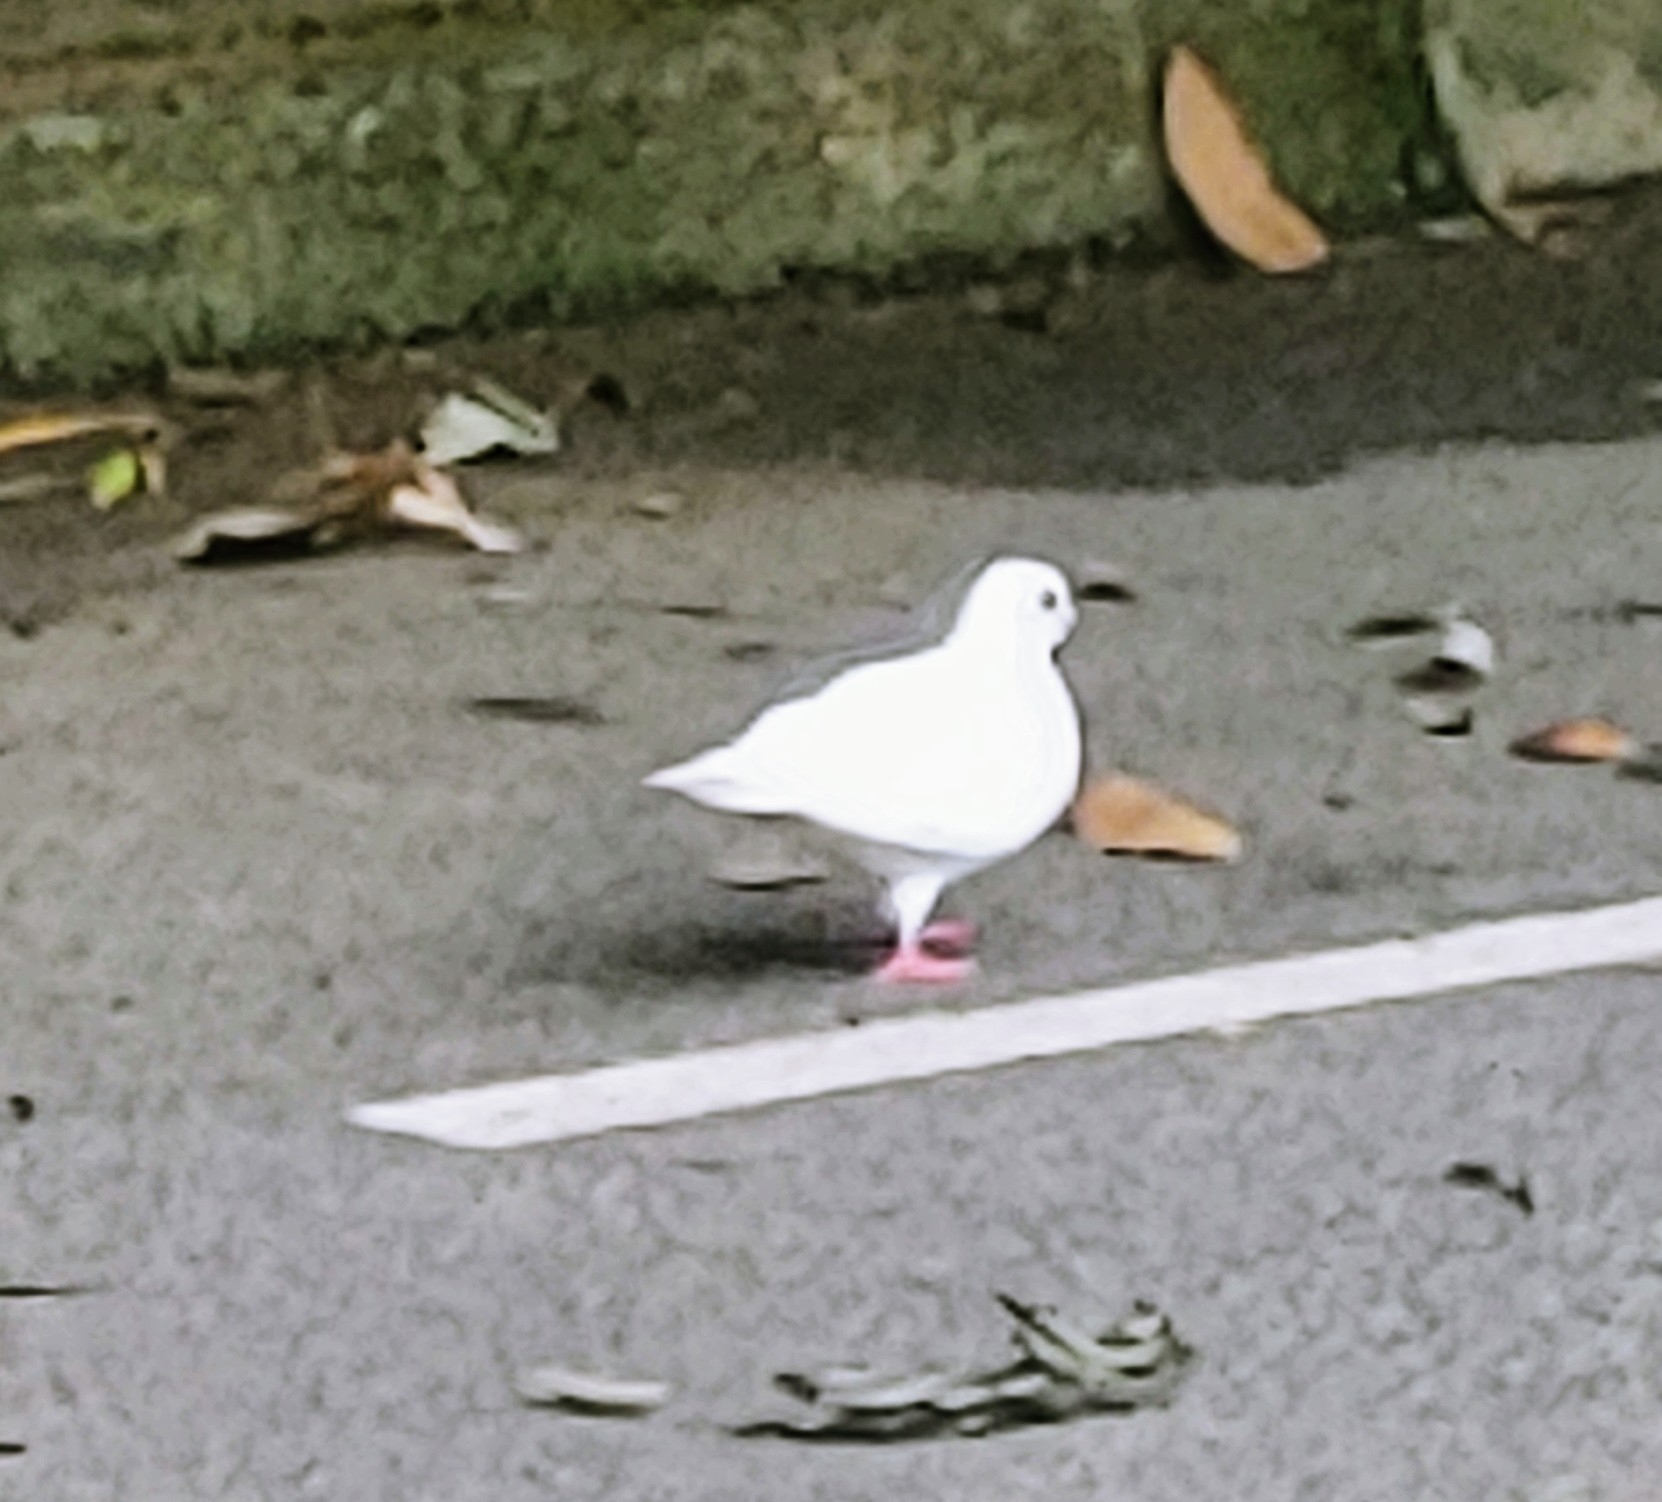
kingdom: Animalia
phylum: Chordata
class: Aves
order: Columbiformes
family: Columbidae
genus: Columba
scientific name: Columba livia
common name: Rock pigeon
